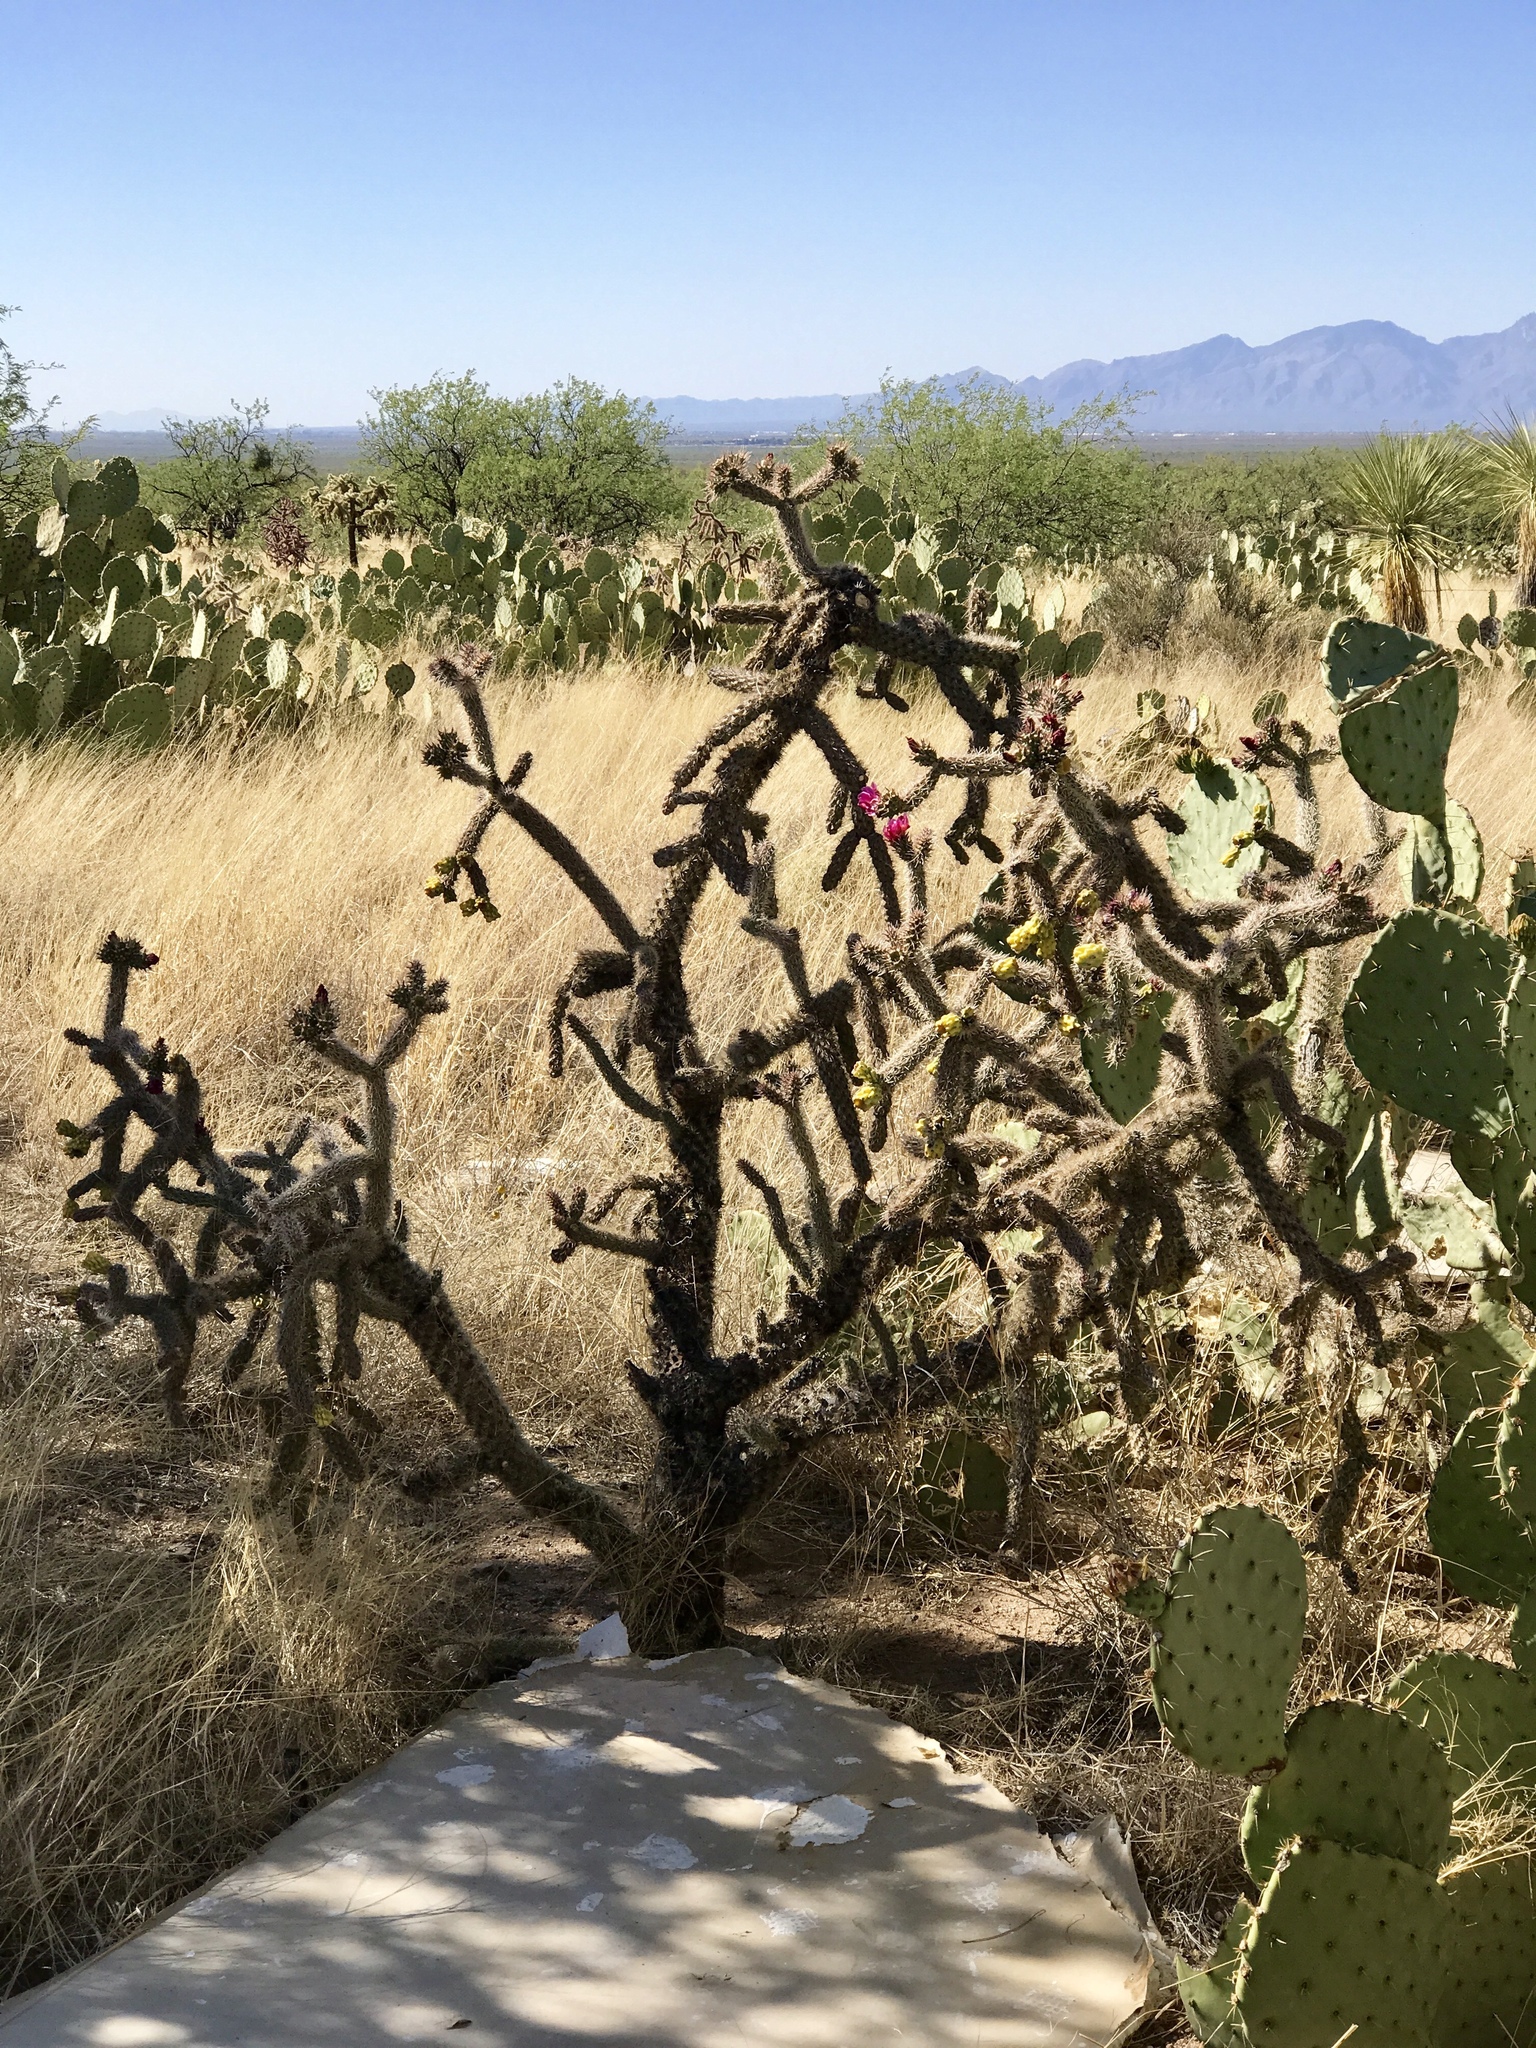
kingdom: Plantae
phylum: Tracheophyta
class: Magnoliopsida
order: Caryophyllales
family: Cactaceae
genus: Cylindropuntia
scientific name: Cylindropuntia imbricata
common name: Candelabrum cactus
